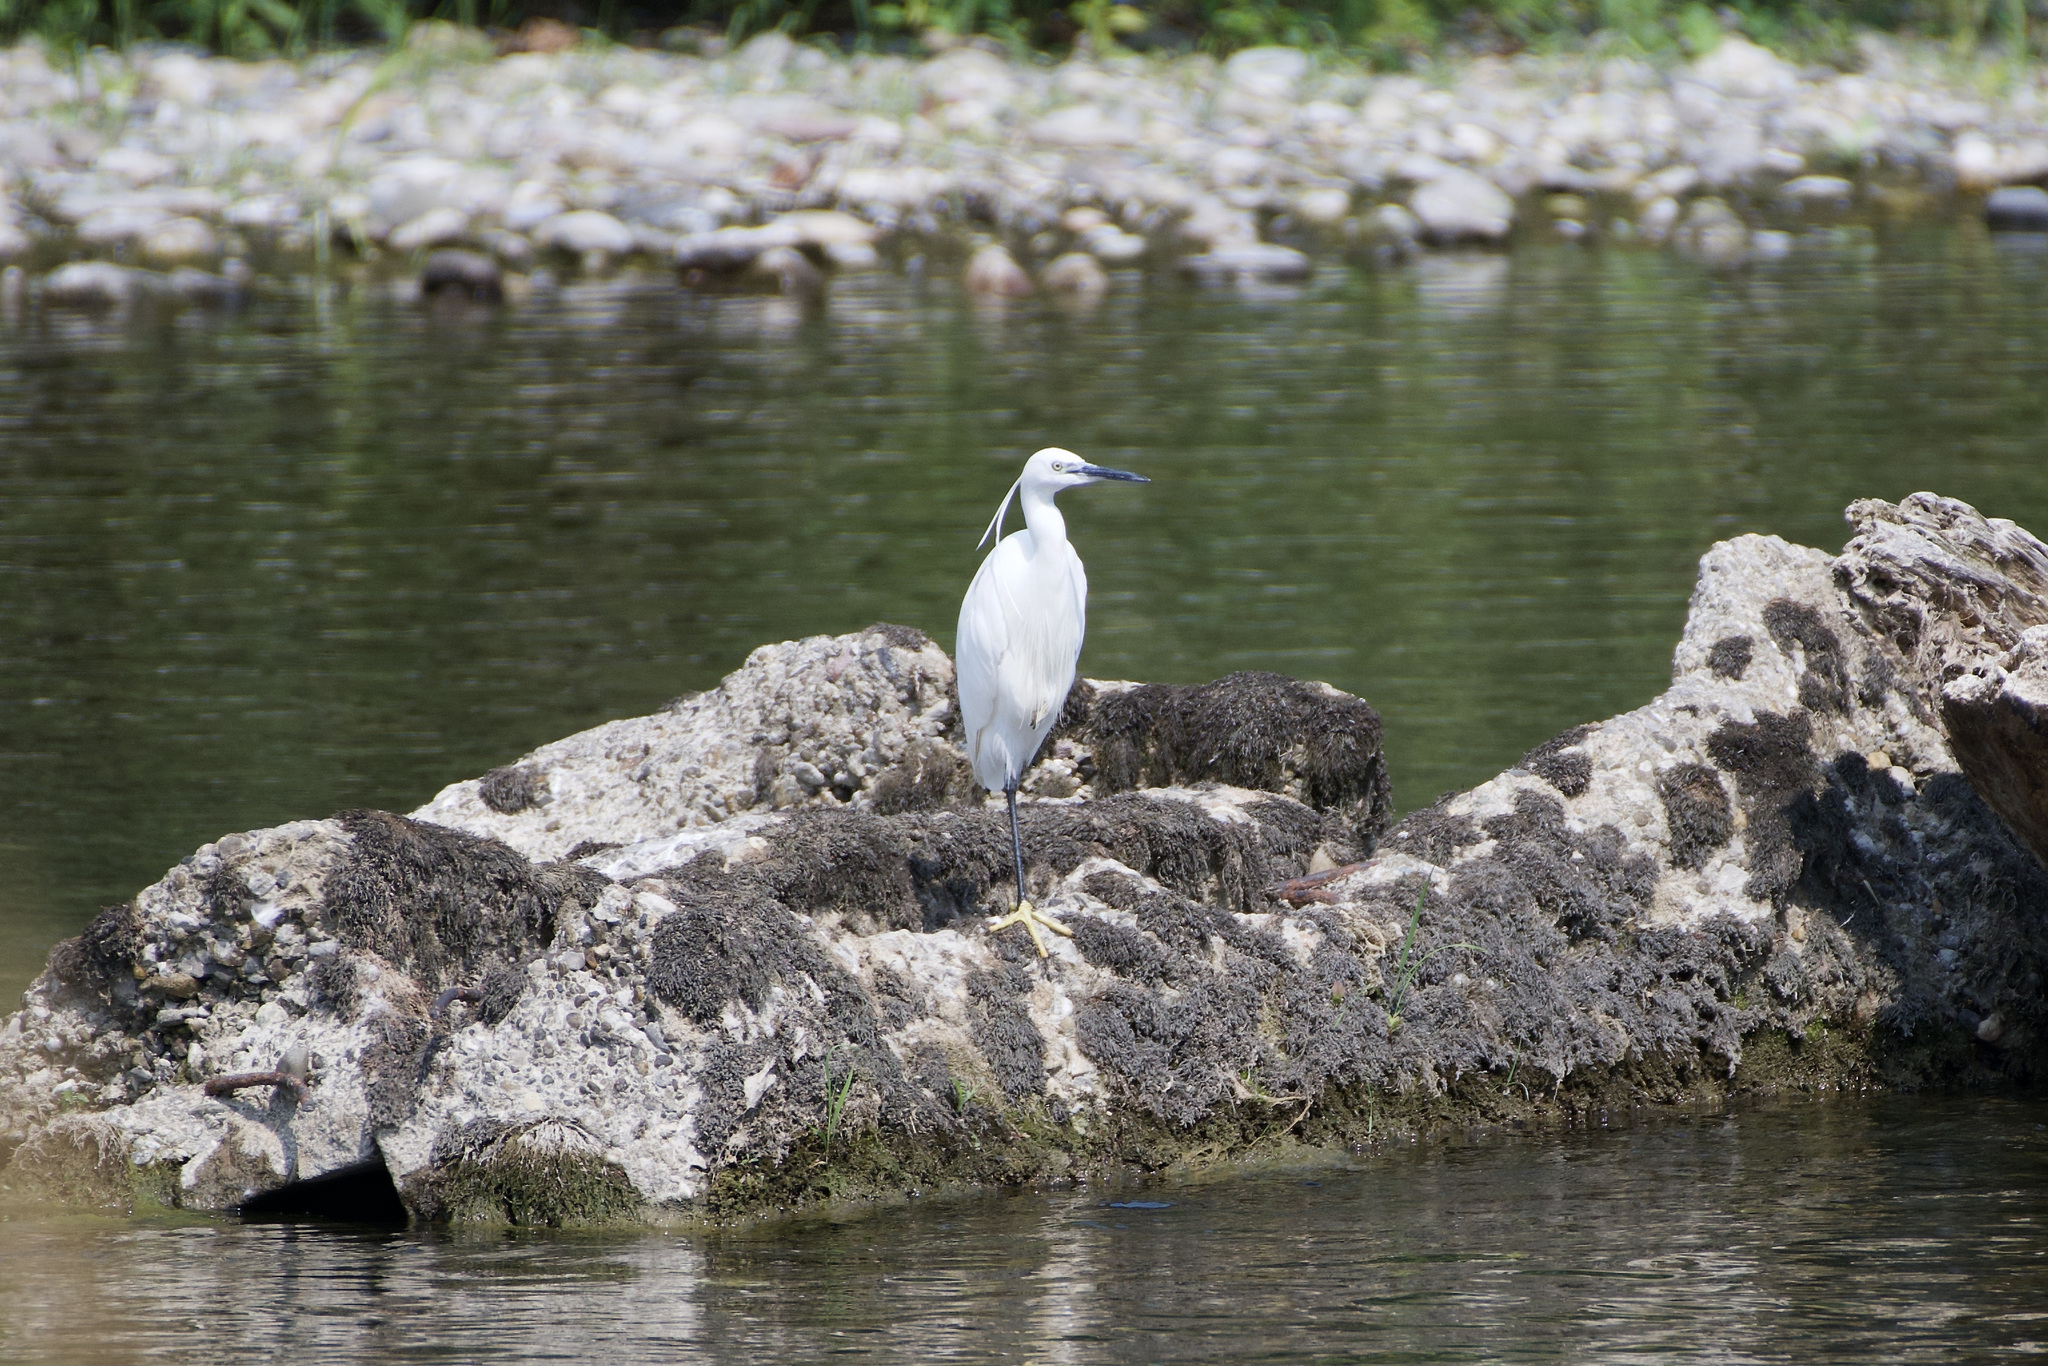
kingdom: Animalia
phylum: Chordata
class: Aves
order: Pelecaniformes
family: Ardeidae
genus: Egretta
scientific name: Egretta garzetta
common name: Little egret
